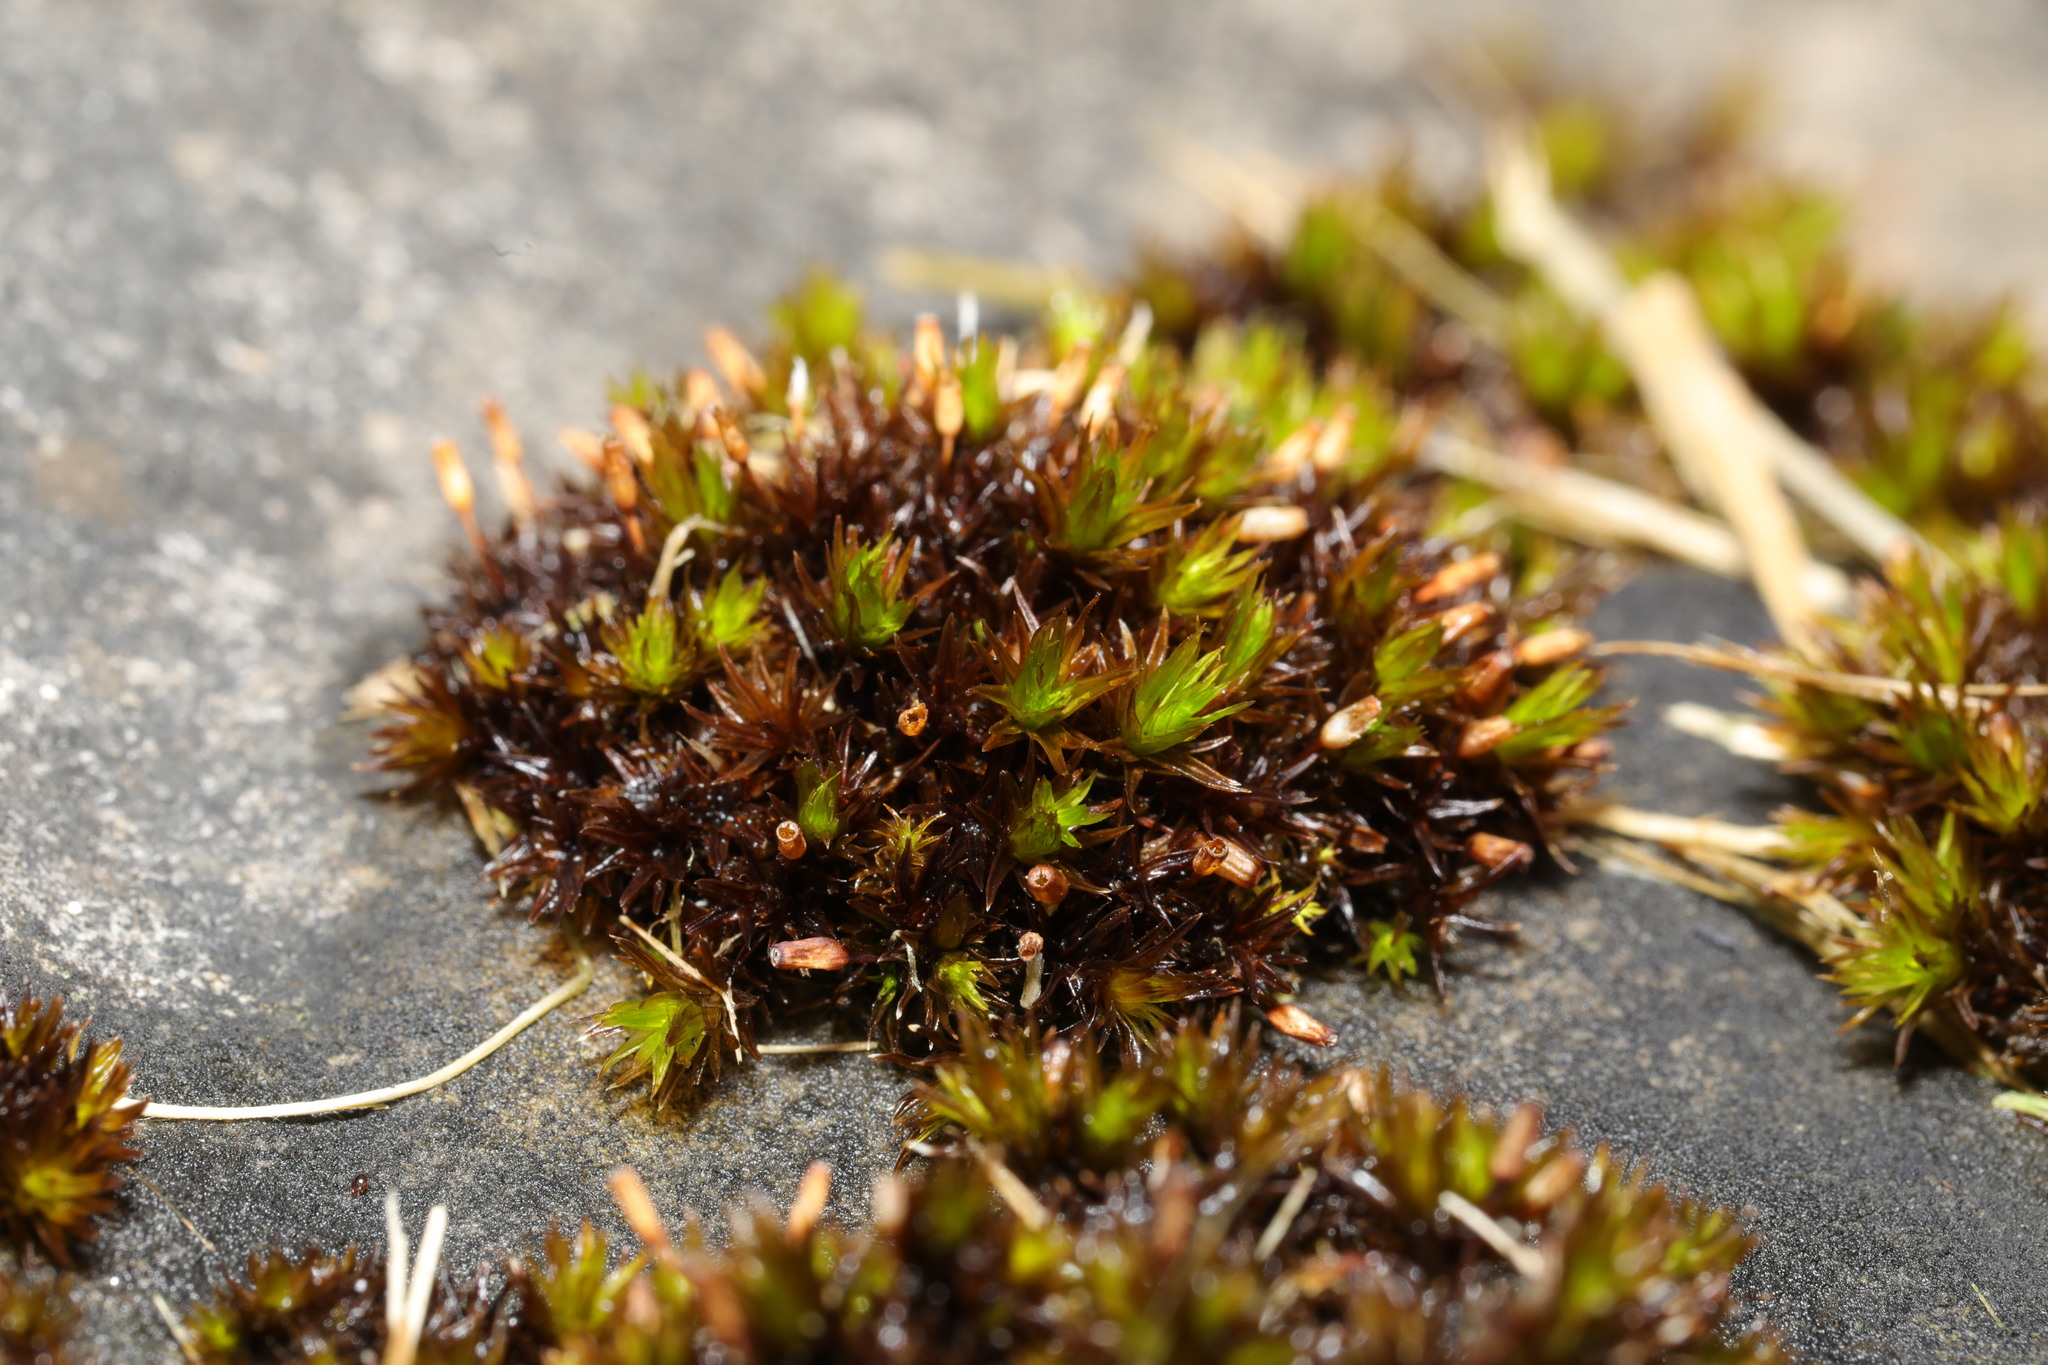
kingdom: Plantae
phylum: Bryophyta
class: Bryopsida
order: Orthotrichales
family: Orthotrichaceae
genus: Orthotrichum
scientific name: Orthotrichum anomalum
